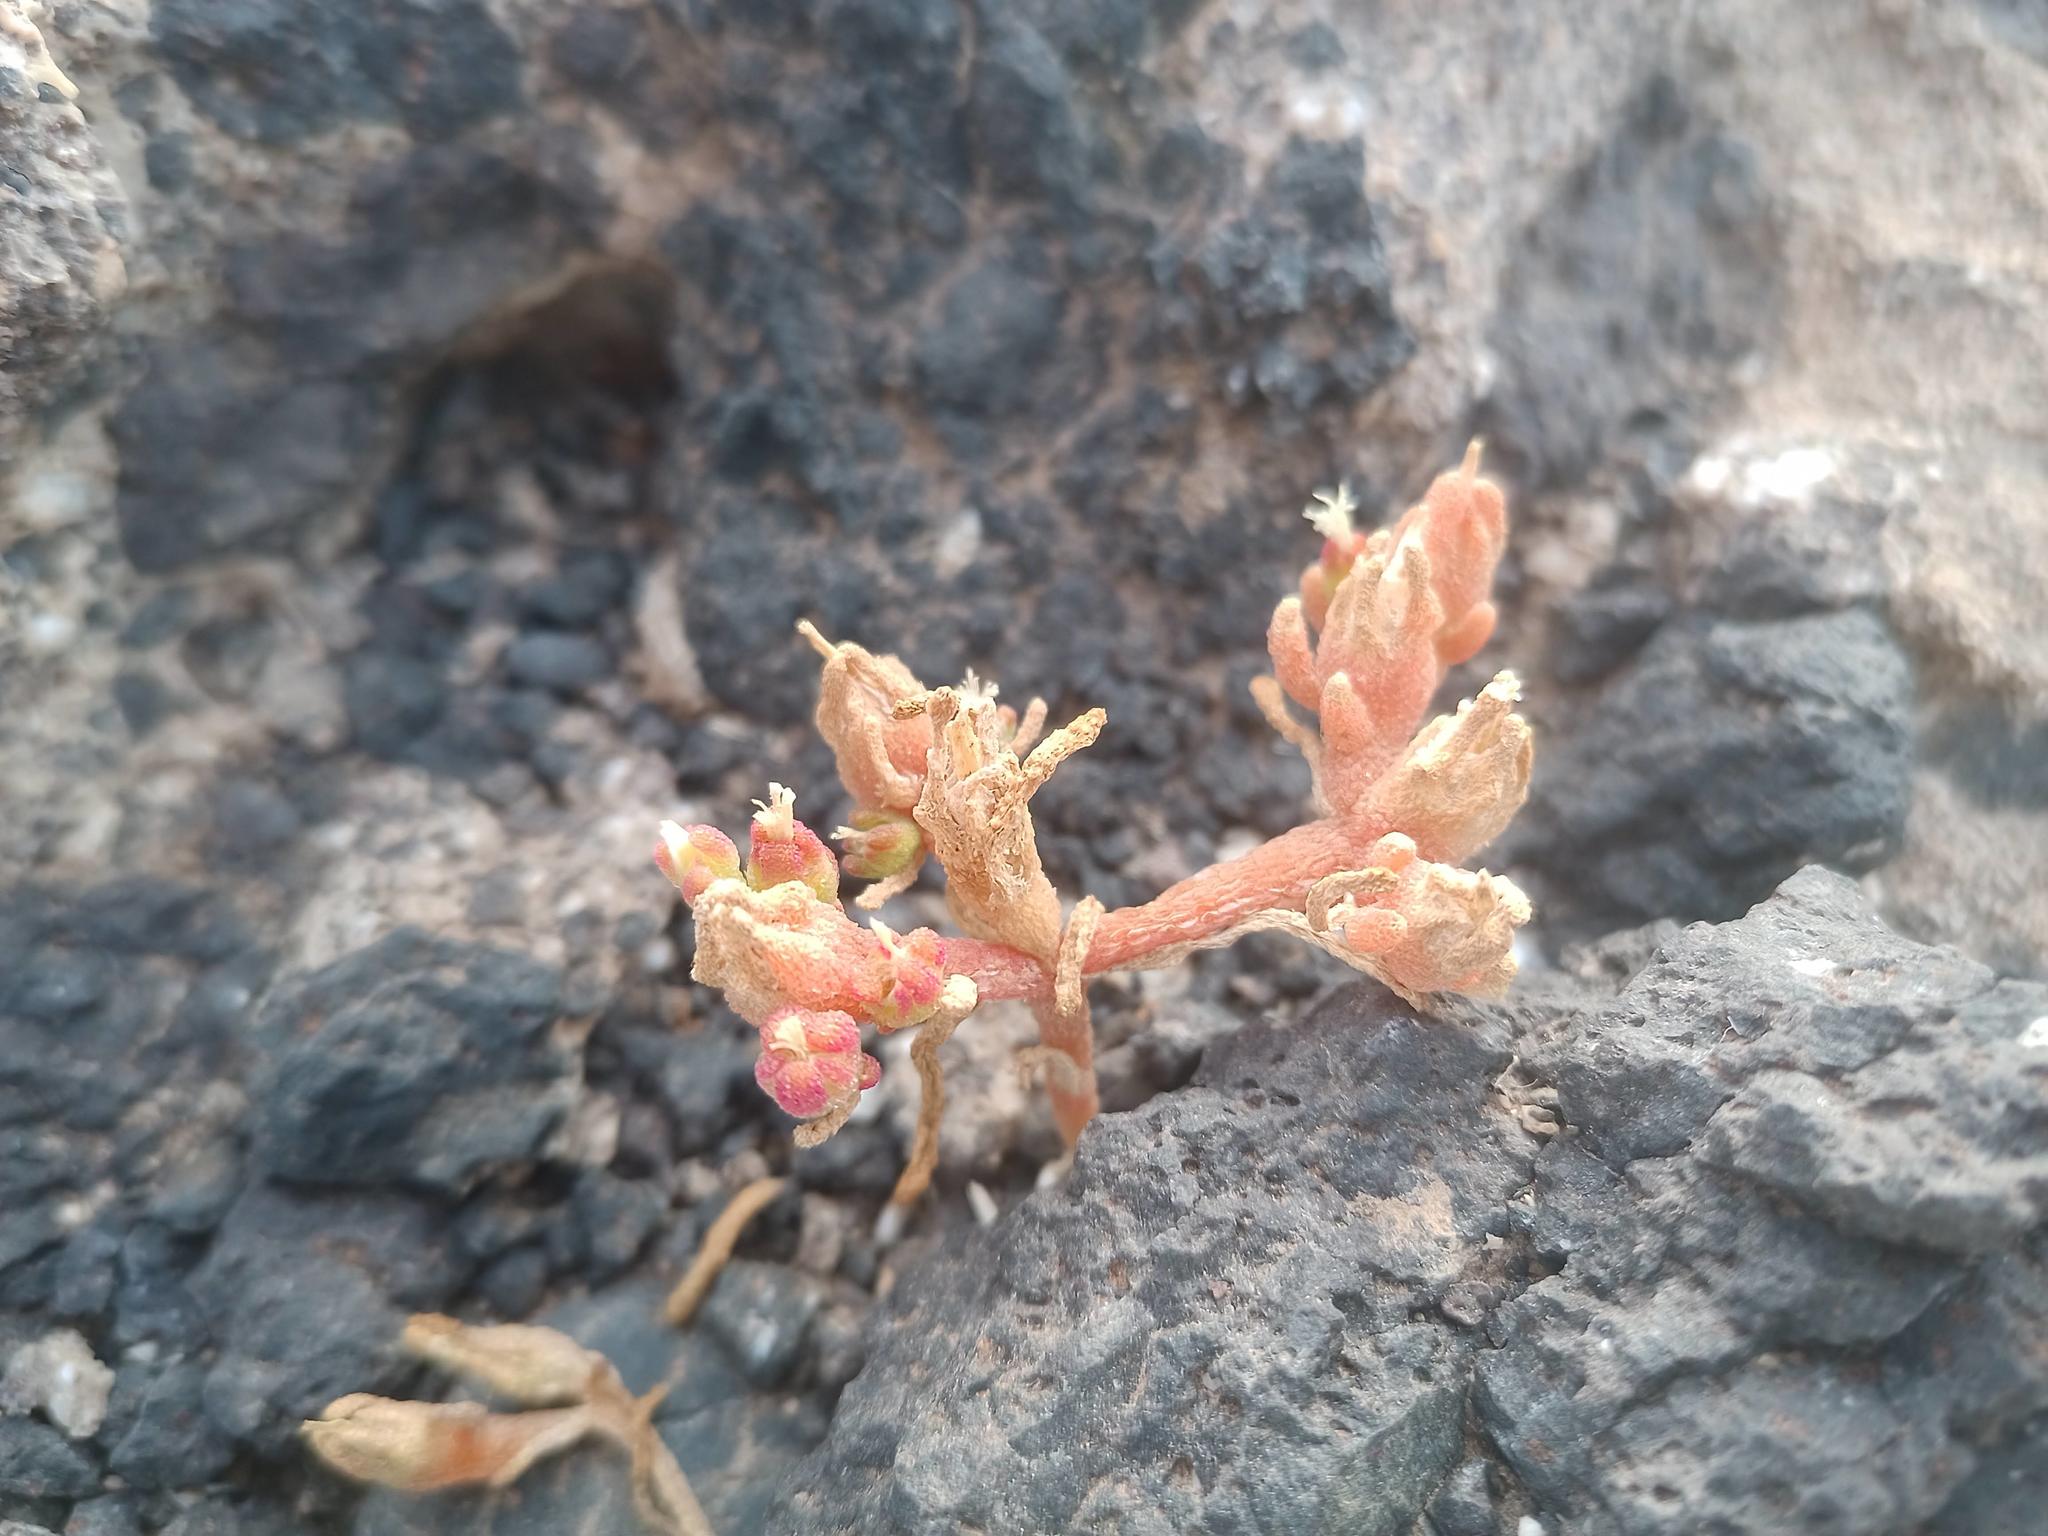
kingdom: Plantae
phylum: Tracheophyta
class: Magnoliopsida
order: Caryophyllales
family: Aizoaceae
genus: Mesembryanthemum
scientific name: Mesembryanthemum nodiflorum
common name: Slenderleaf iceplant
